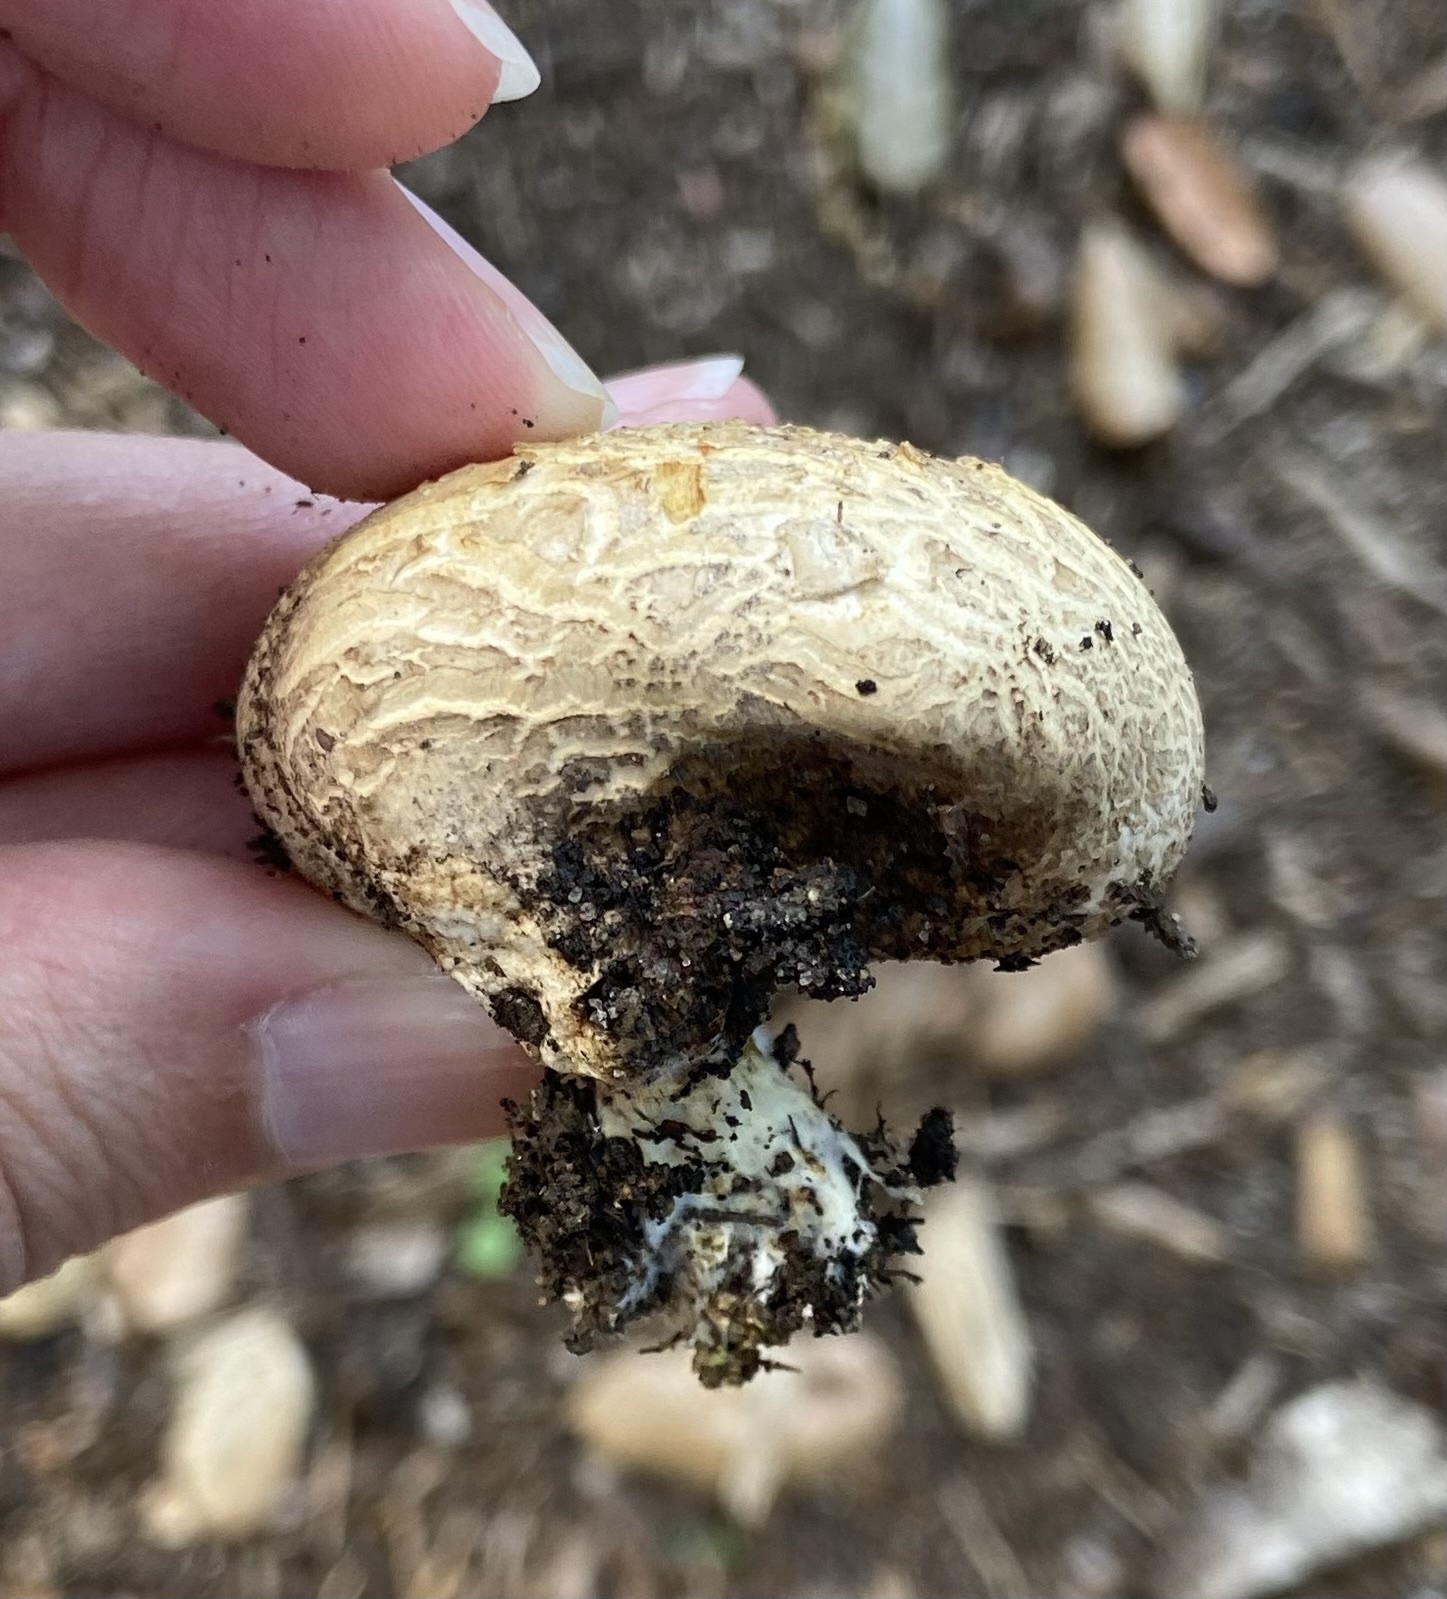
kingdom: Fungi
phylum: Basidiomycota
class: Agaricomycetes
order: Boletales
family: Sclerodermataceae
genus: Scleroderma
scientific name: Scleroderma cepa
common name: Onion earthball
